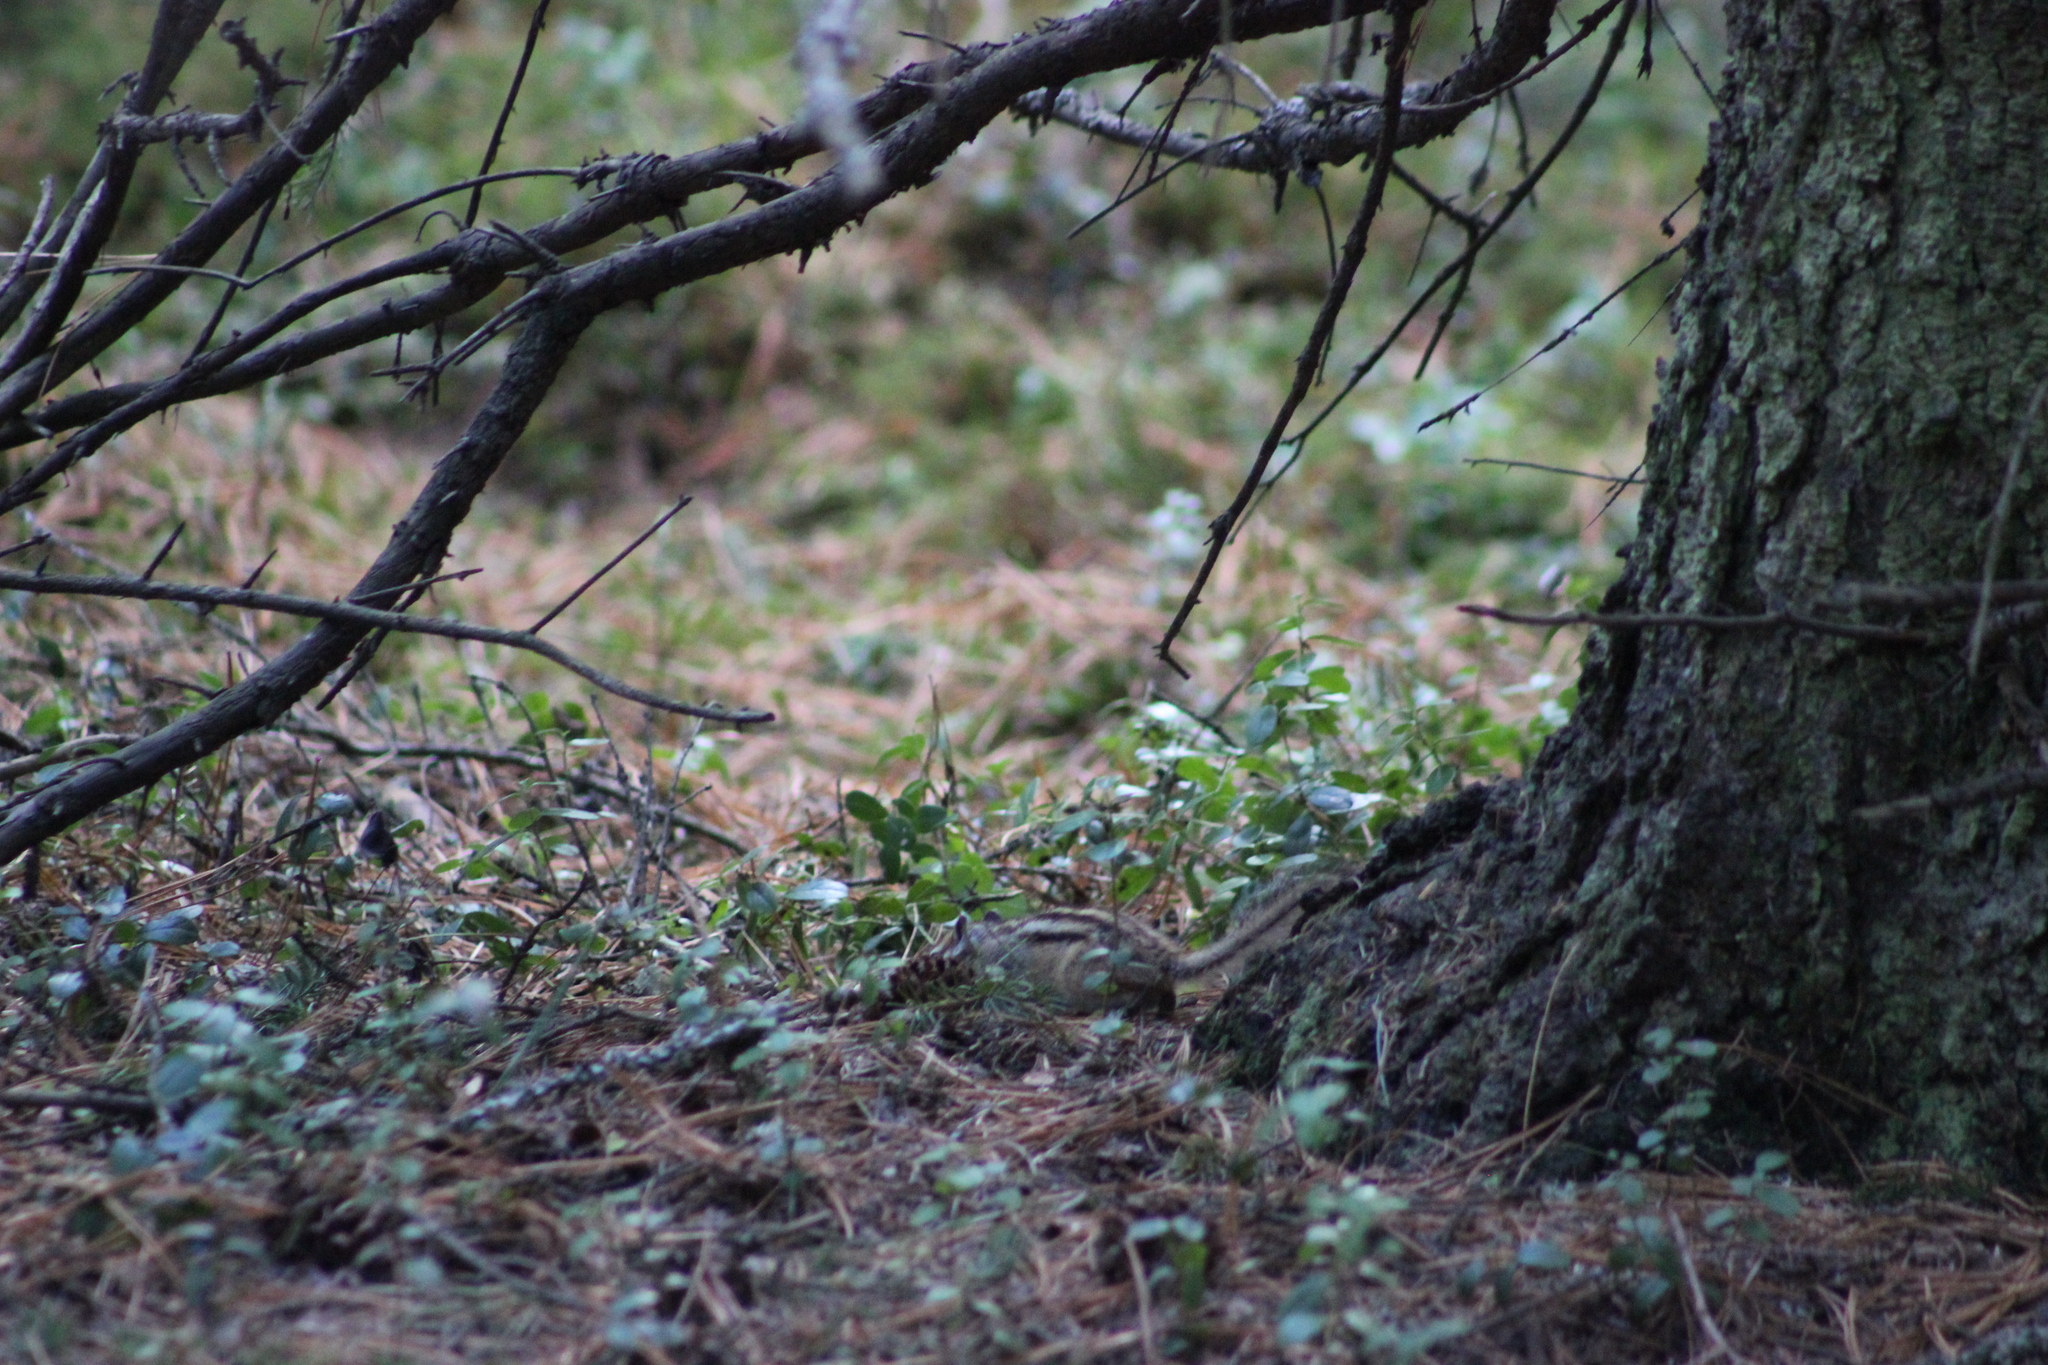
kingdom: Animalia
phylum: Chordata
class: Mammalia
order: Rodentia
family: Sciuridae
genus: Tamias
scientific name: Tamias sibiricus
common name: Siberian chipmunk
